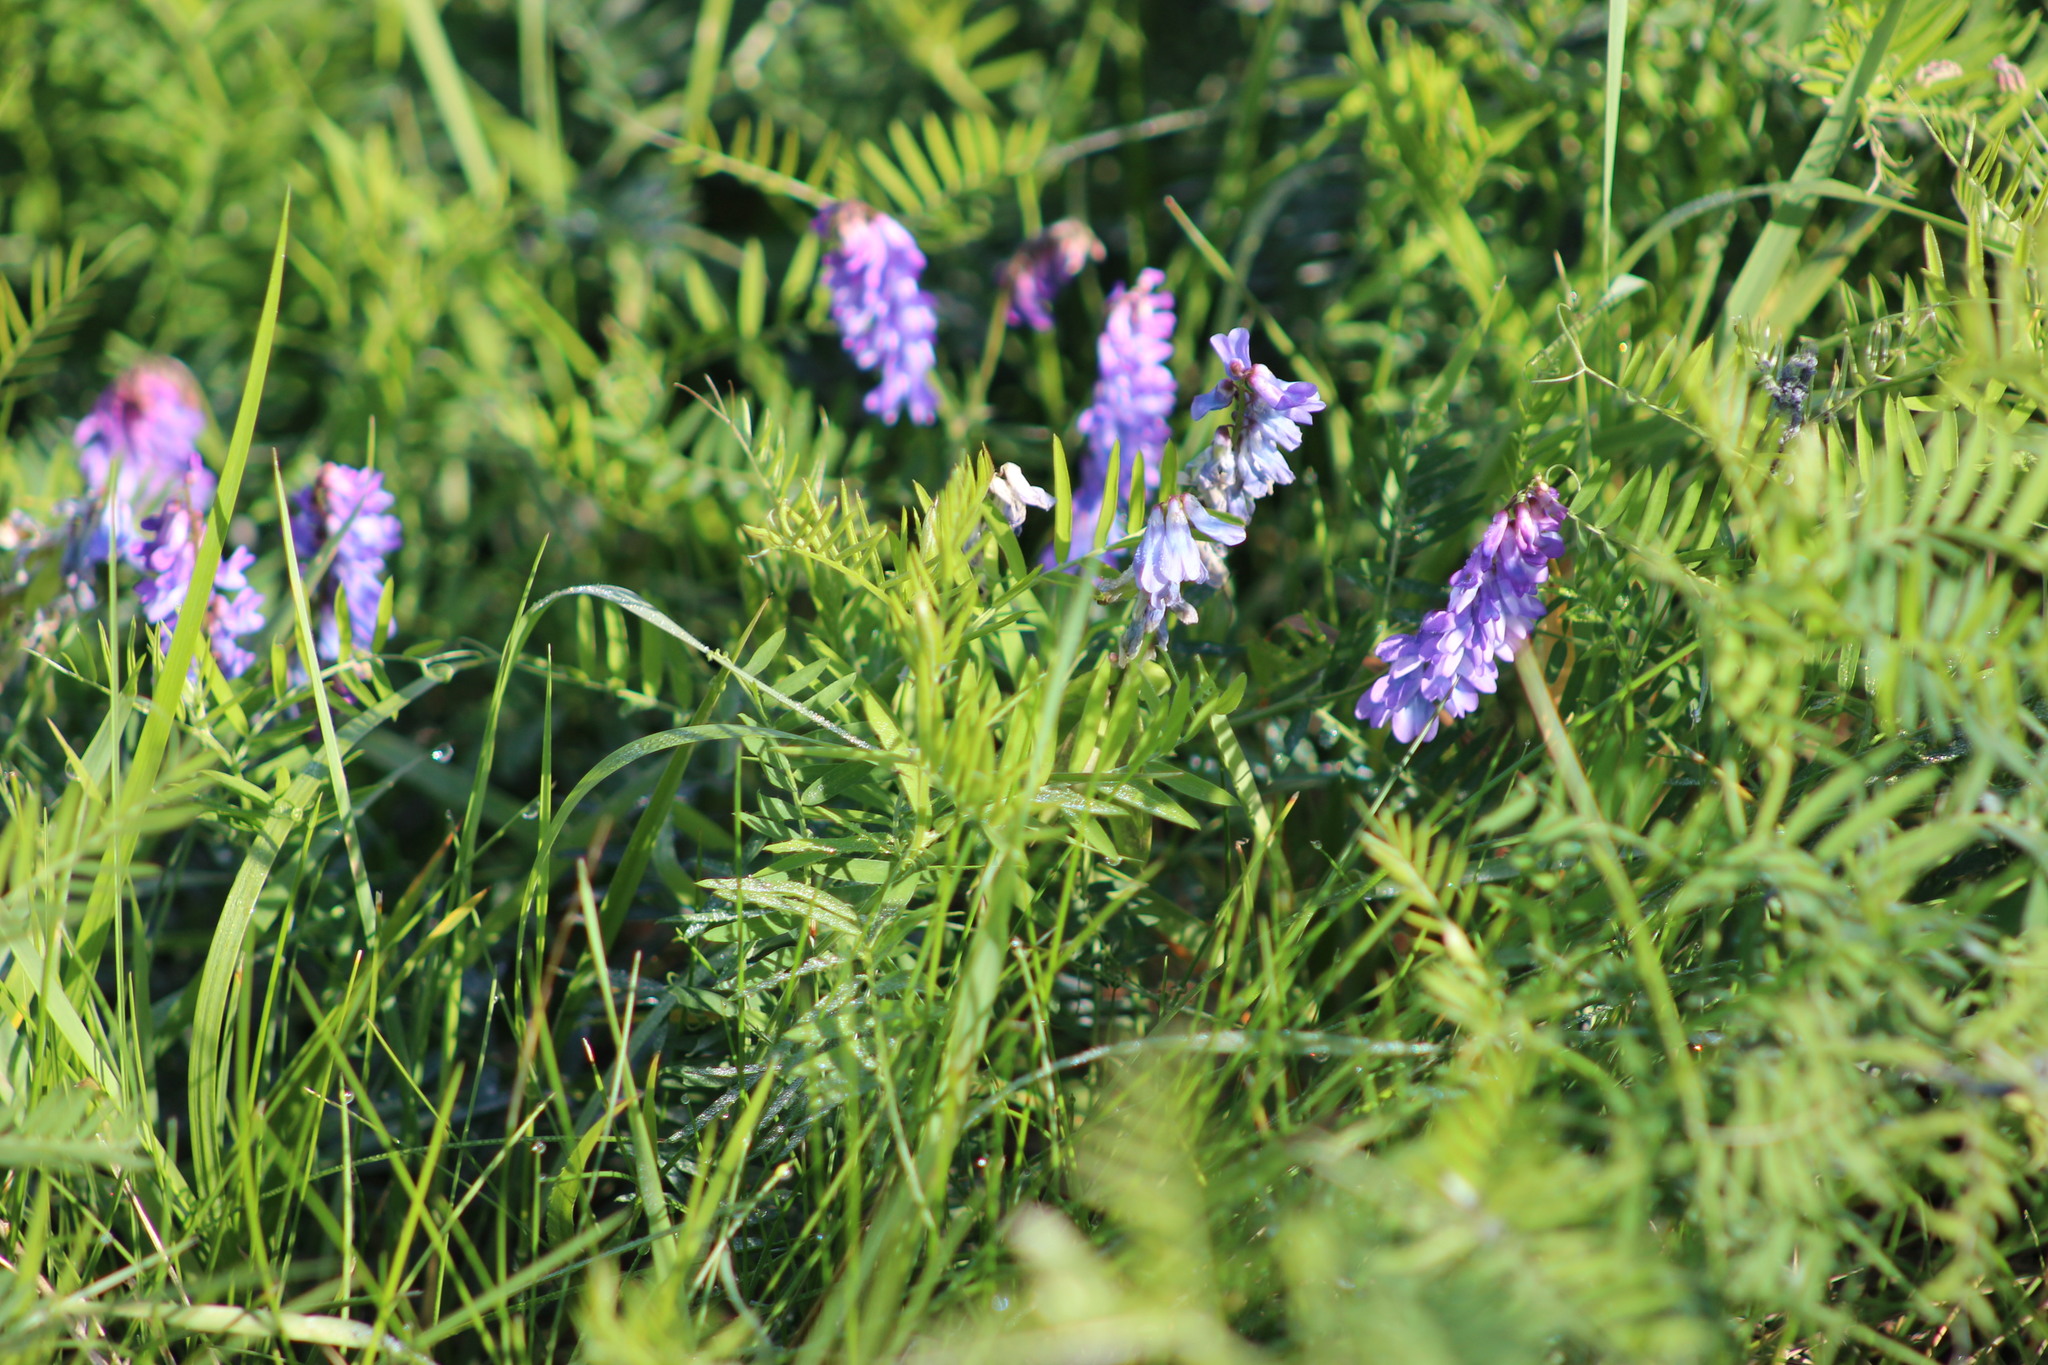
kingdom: Plantae
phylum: Tracheophyta
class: Magnoliopsida
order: Fabales
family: Fabaceae
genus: Vicia
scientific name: Vicia cracca
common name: Bird vetch
